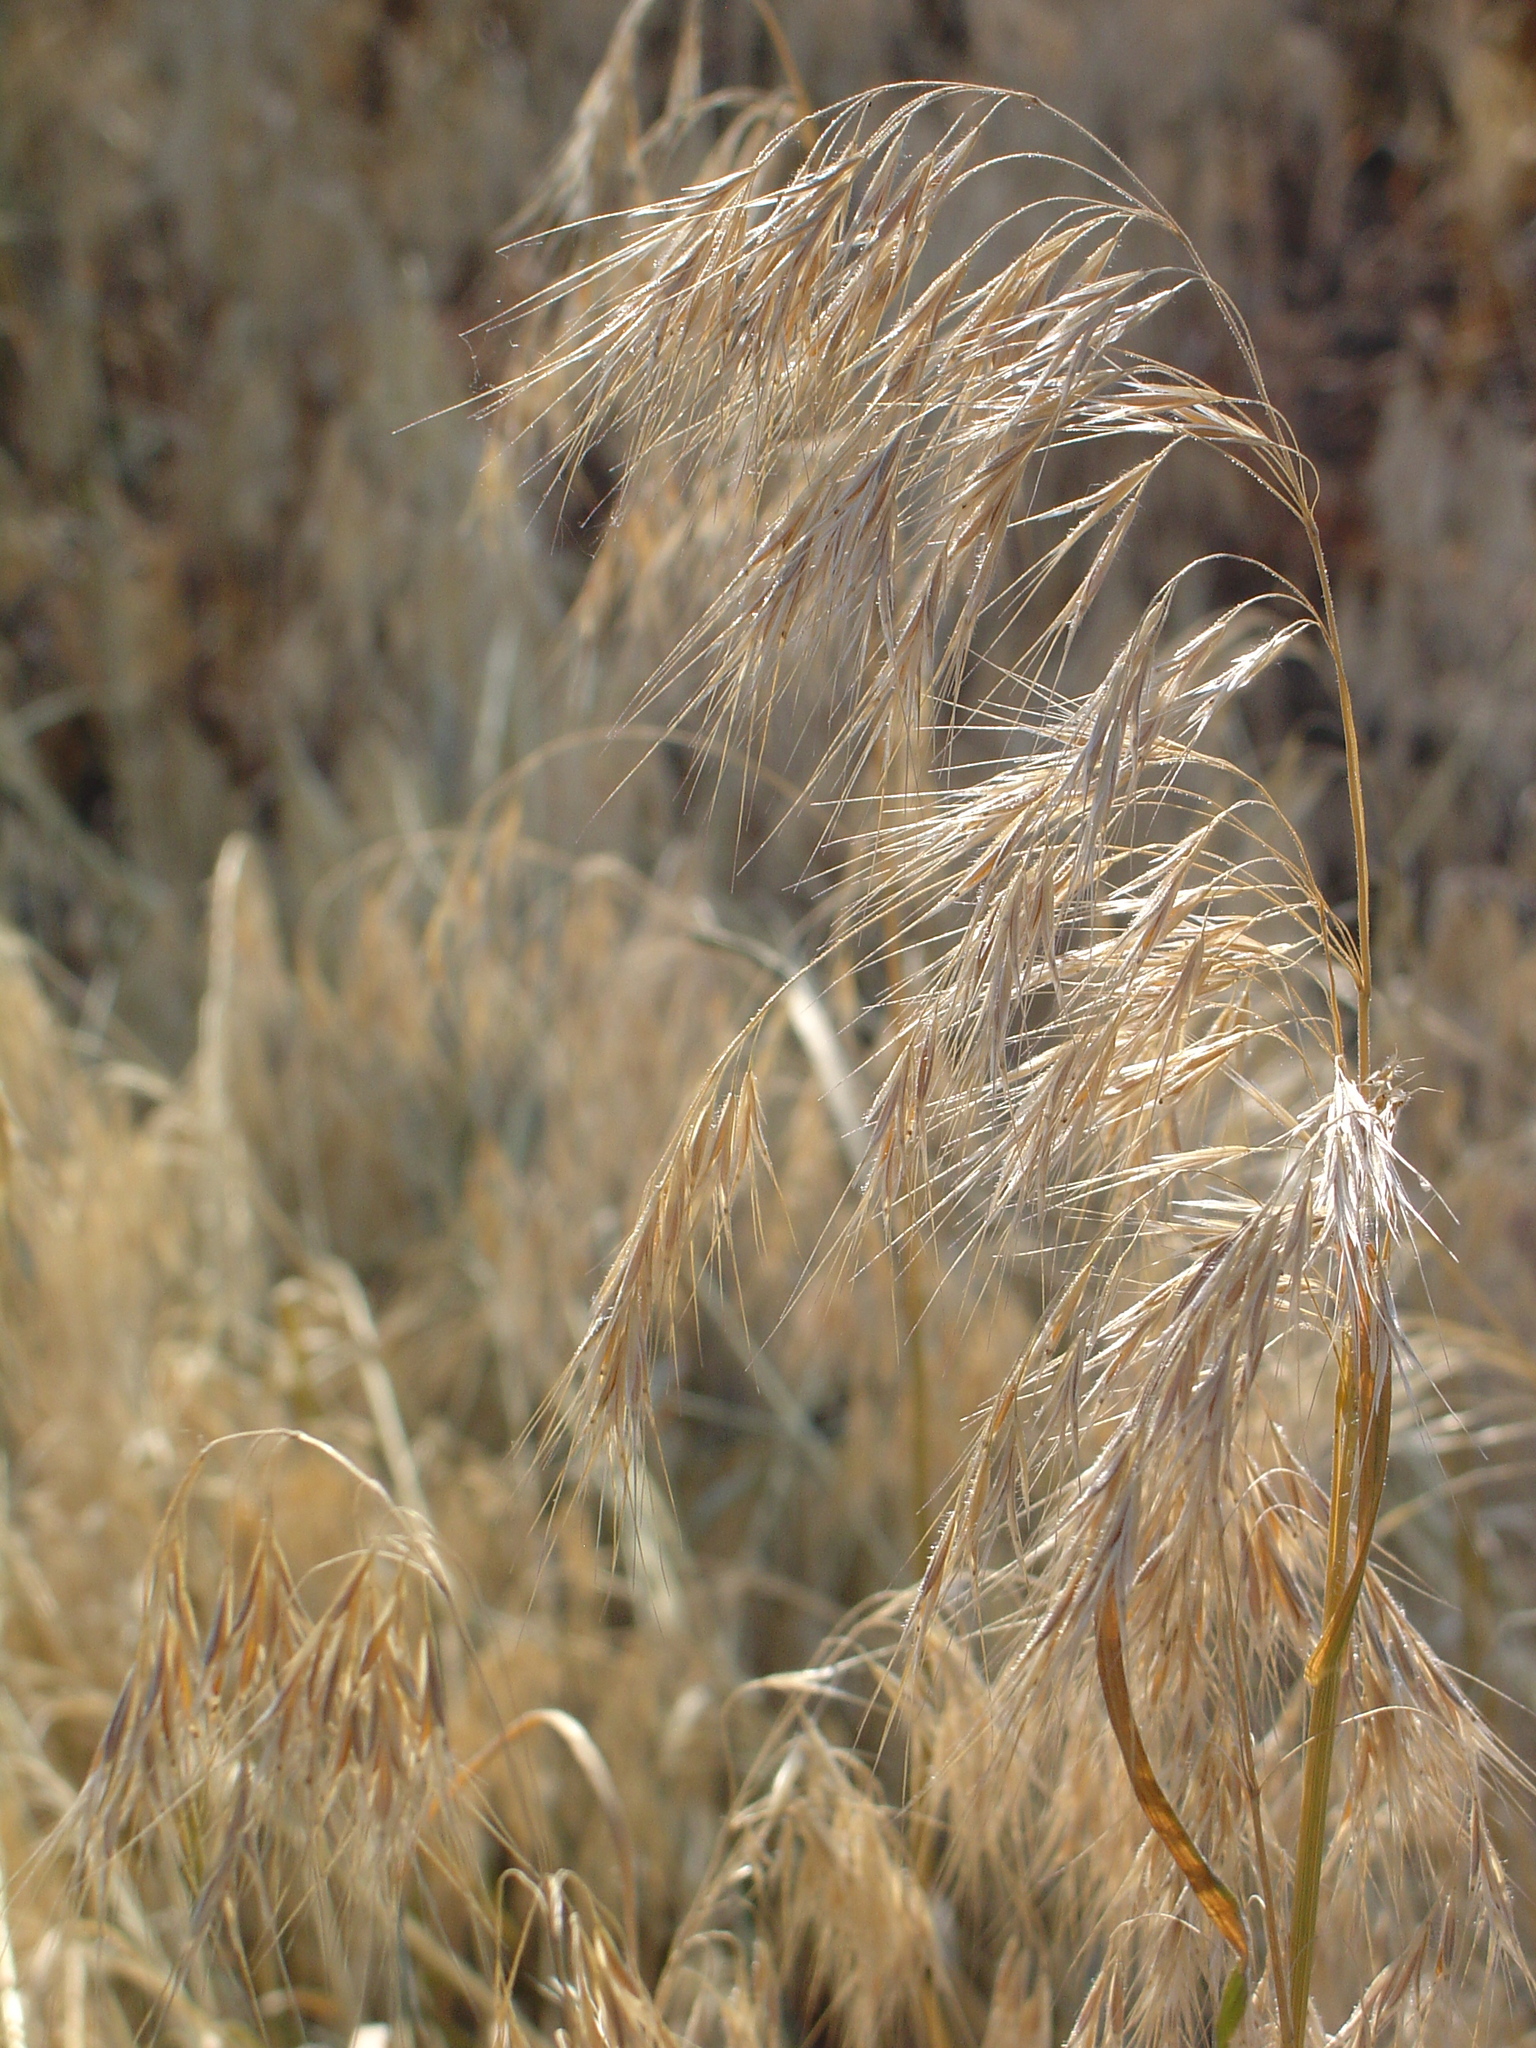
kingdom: Plantae
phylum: Tracheophyta
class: Liliopsida
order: Poales
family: Poaceae
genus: Bromus
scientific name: Bromus tectorum
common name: Cheatgrass
